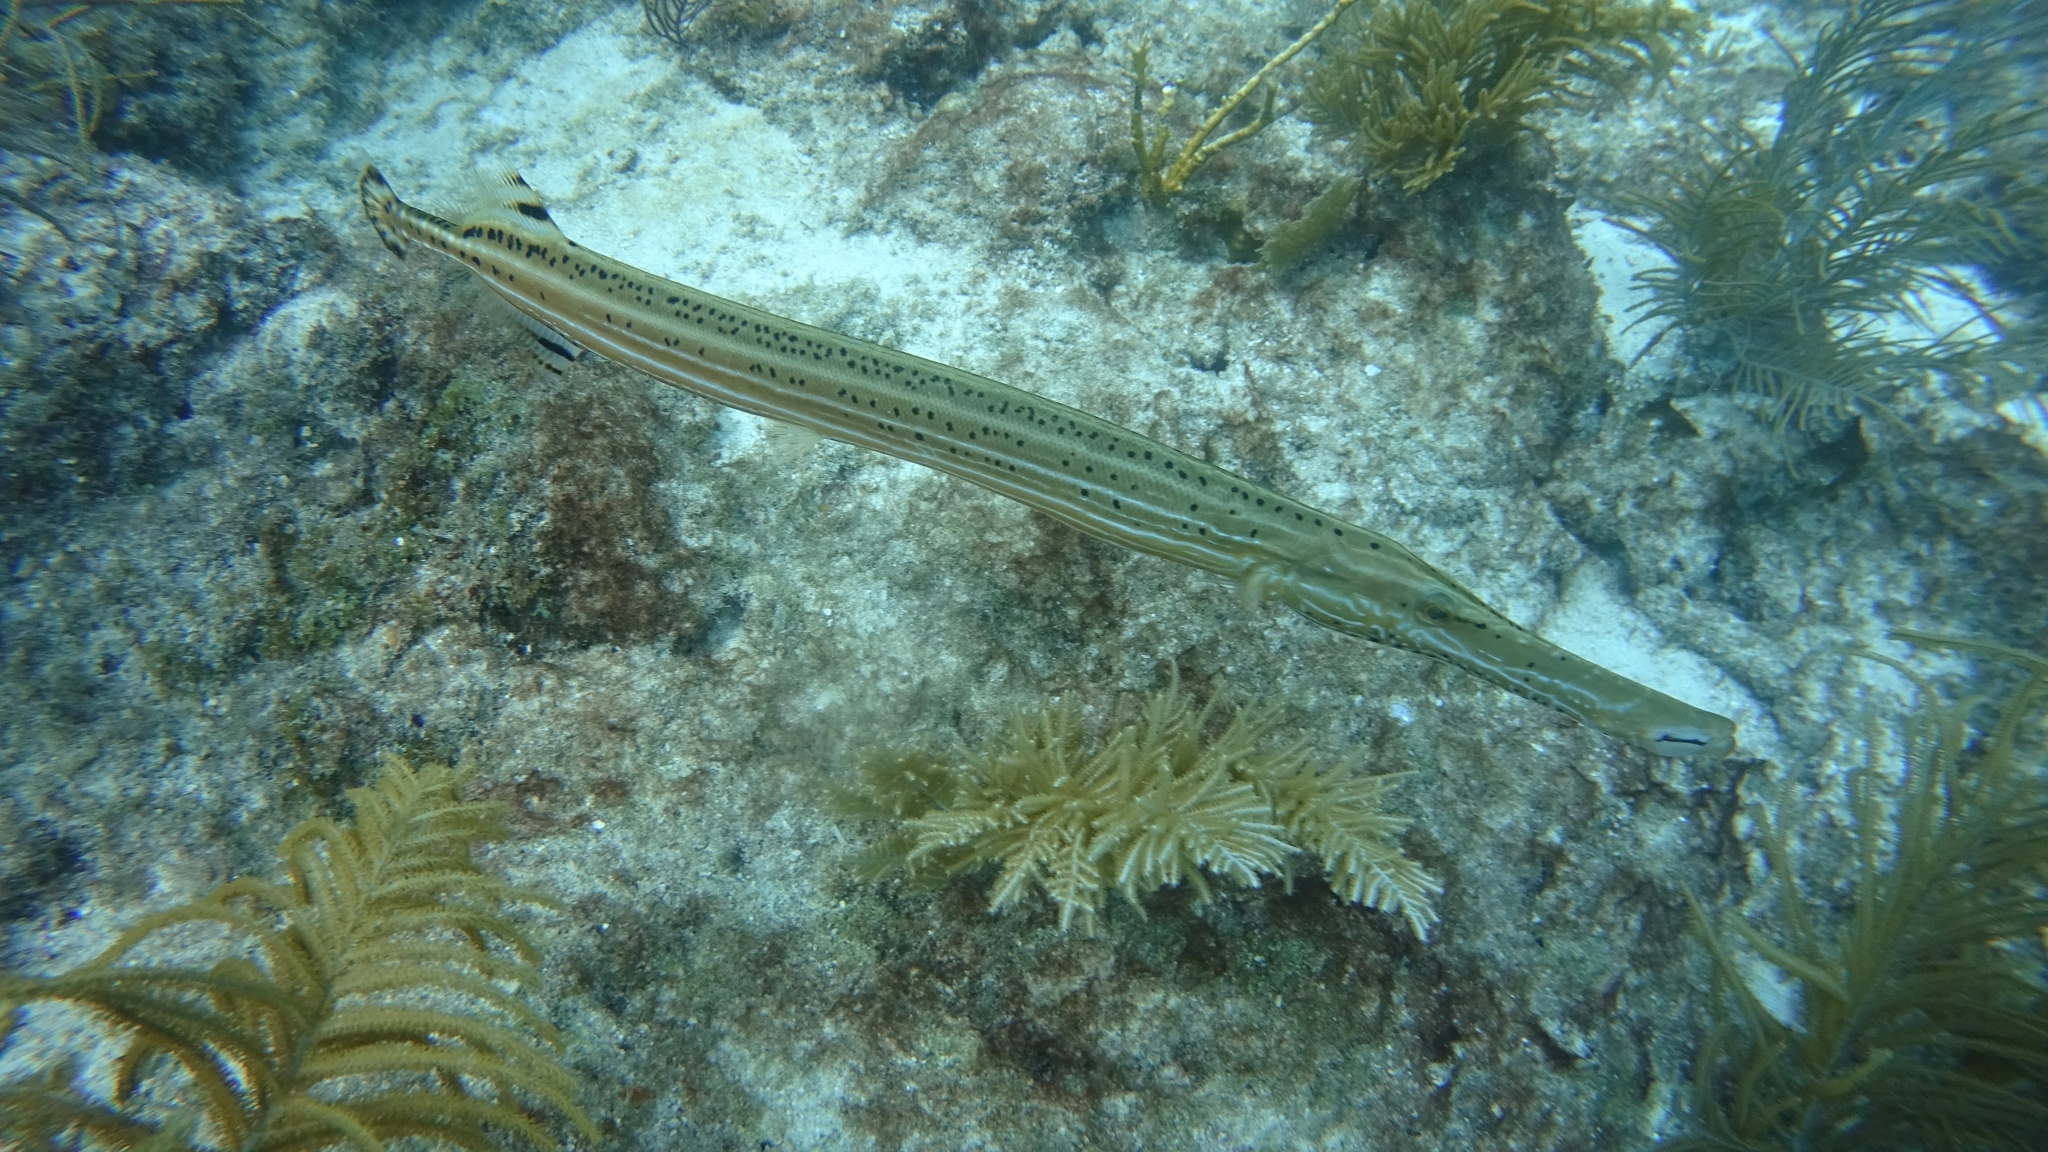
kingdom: Animalia
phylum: Chordata
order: Syngnathiformes
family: Aulostomidae
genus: Aulostomus
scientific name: Aulostomus maculatus
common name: West atlantic trumpetfish
